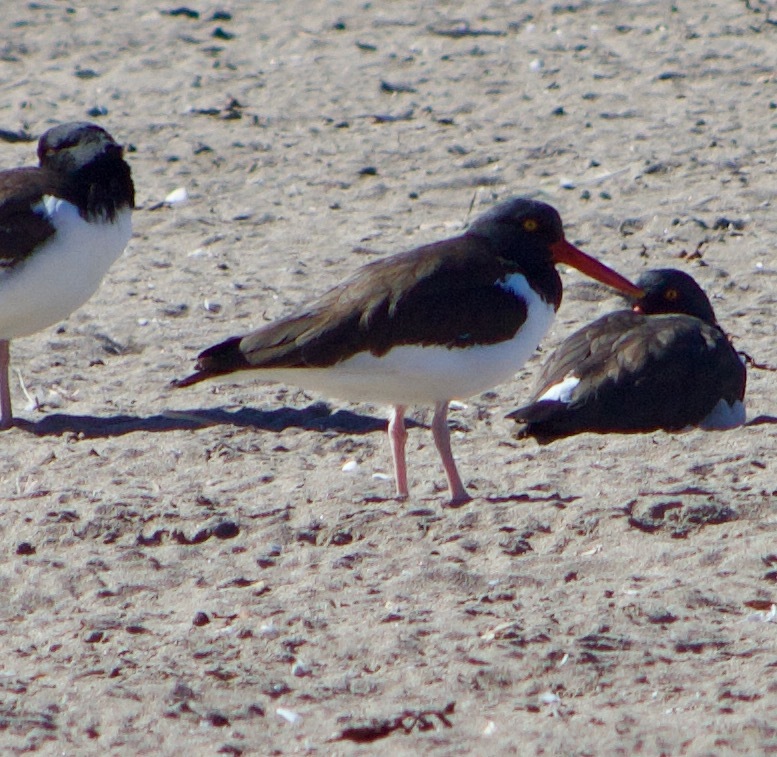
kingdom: Animalia
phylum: Chordata
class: Aves
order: Charadriiformes
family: Haematopodidae
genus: Haematopus
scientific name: Haematopus palliatus
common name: American oystercatcher
